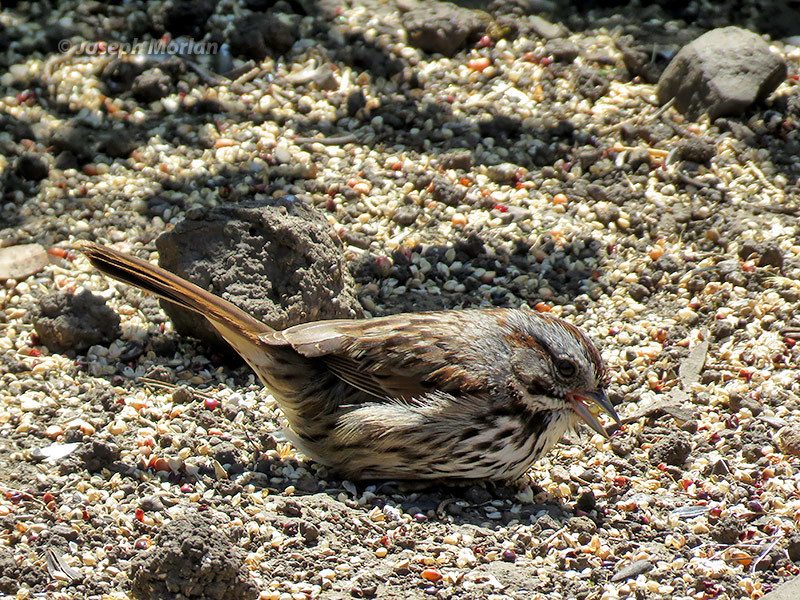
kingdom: Animalia
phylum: Chordata
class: Aves
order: Passeriformes
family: Passerellidae
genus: Melospiza
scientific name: Melospiza melodia
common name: Song sparrow
